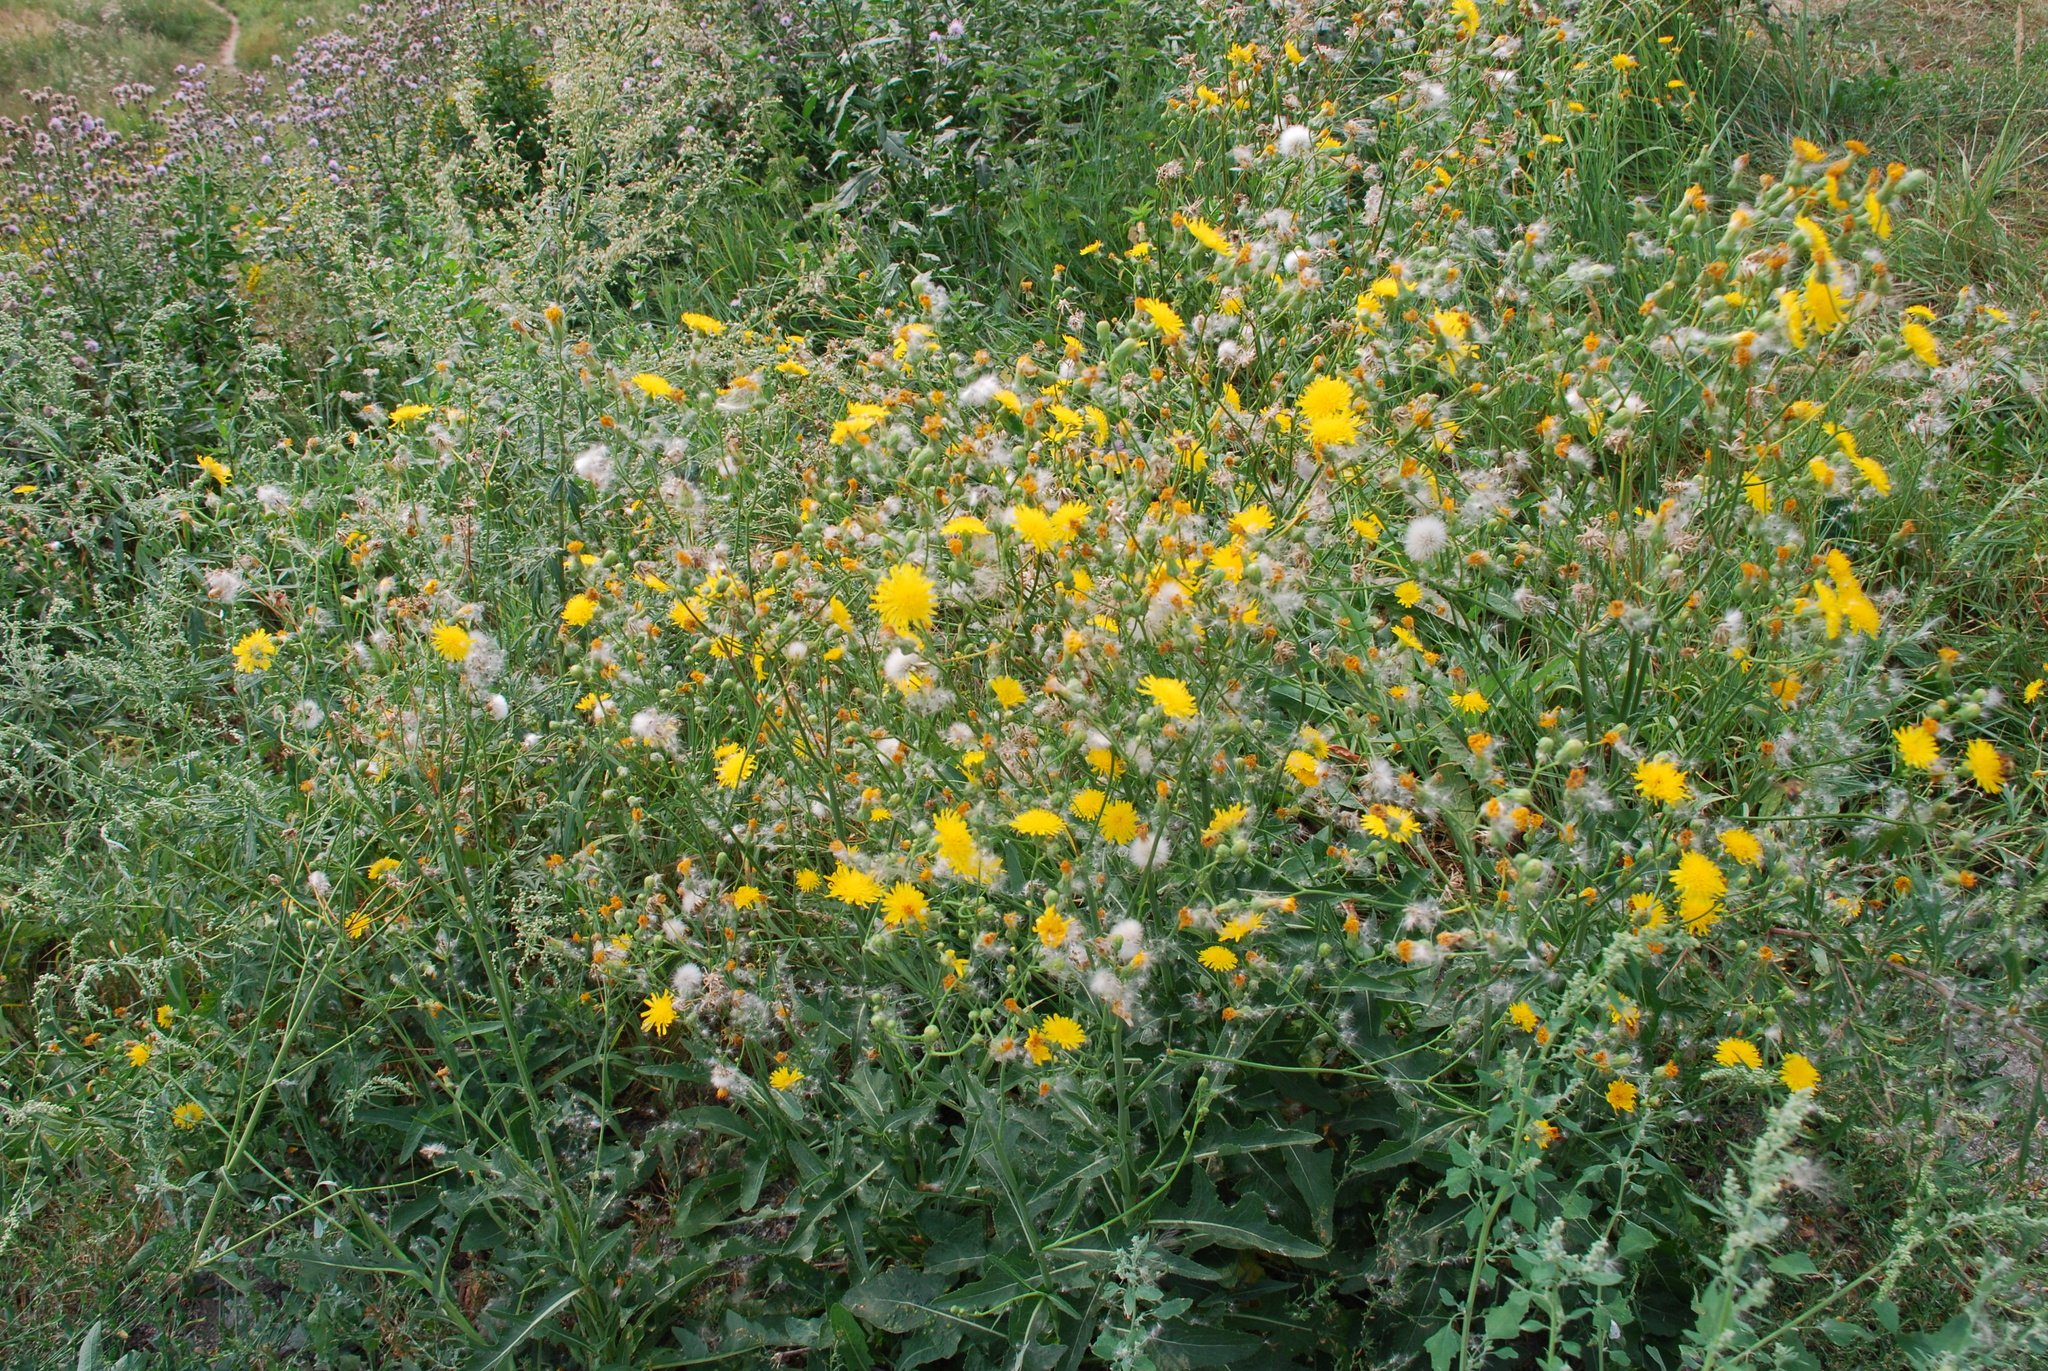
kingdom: Plantae
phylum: Tracheophyta
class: Magnoliopsida
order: Asterales
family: Asteraceae
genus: Sonchus
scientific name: Sonchus arvensis
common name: Perennial sow-thistle
